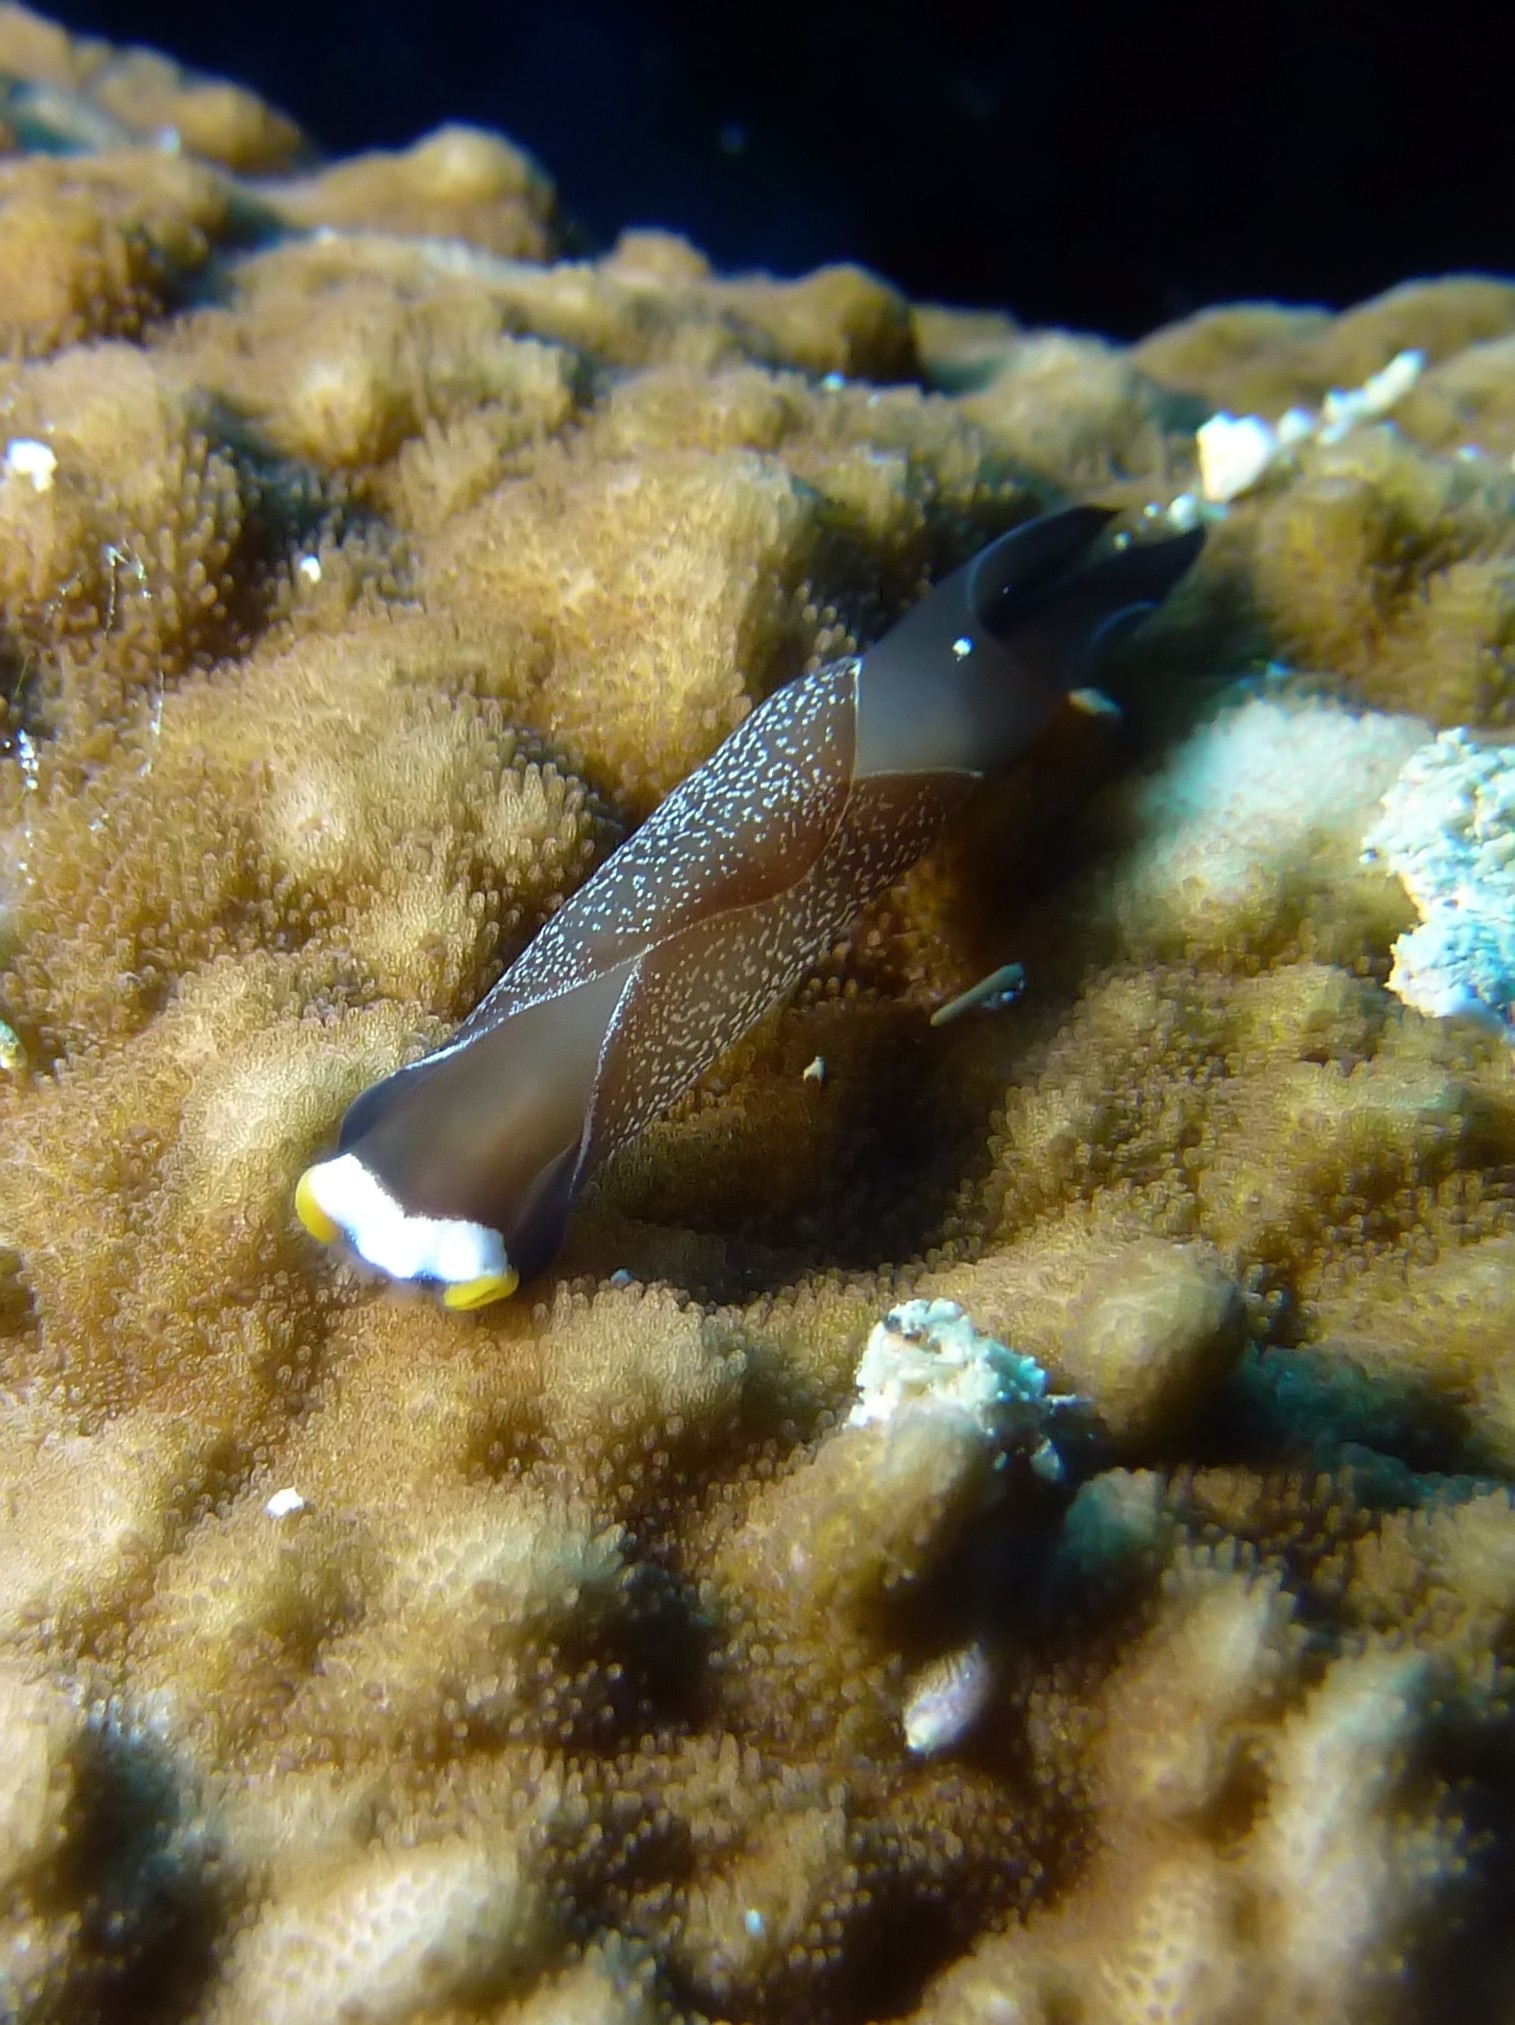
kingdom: Animalia
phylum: Mollusca
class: Gastropoda
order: Cephalaspidea
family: Aglajidae
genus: Mariaglaja
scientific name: Mariaglaja inornata
